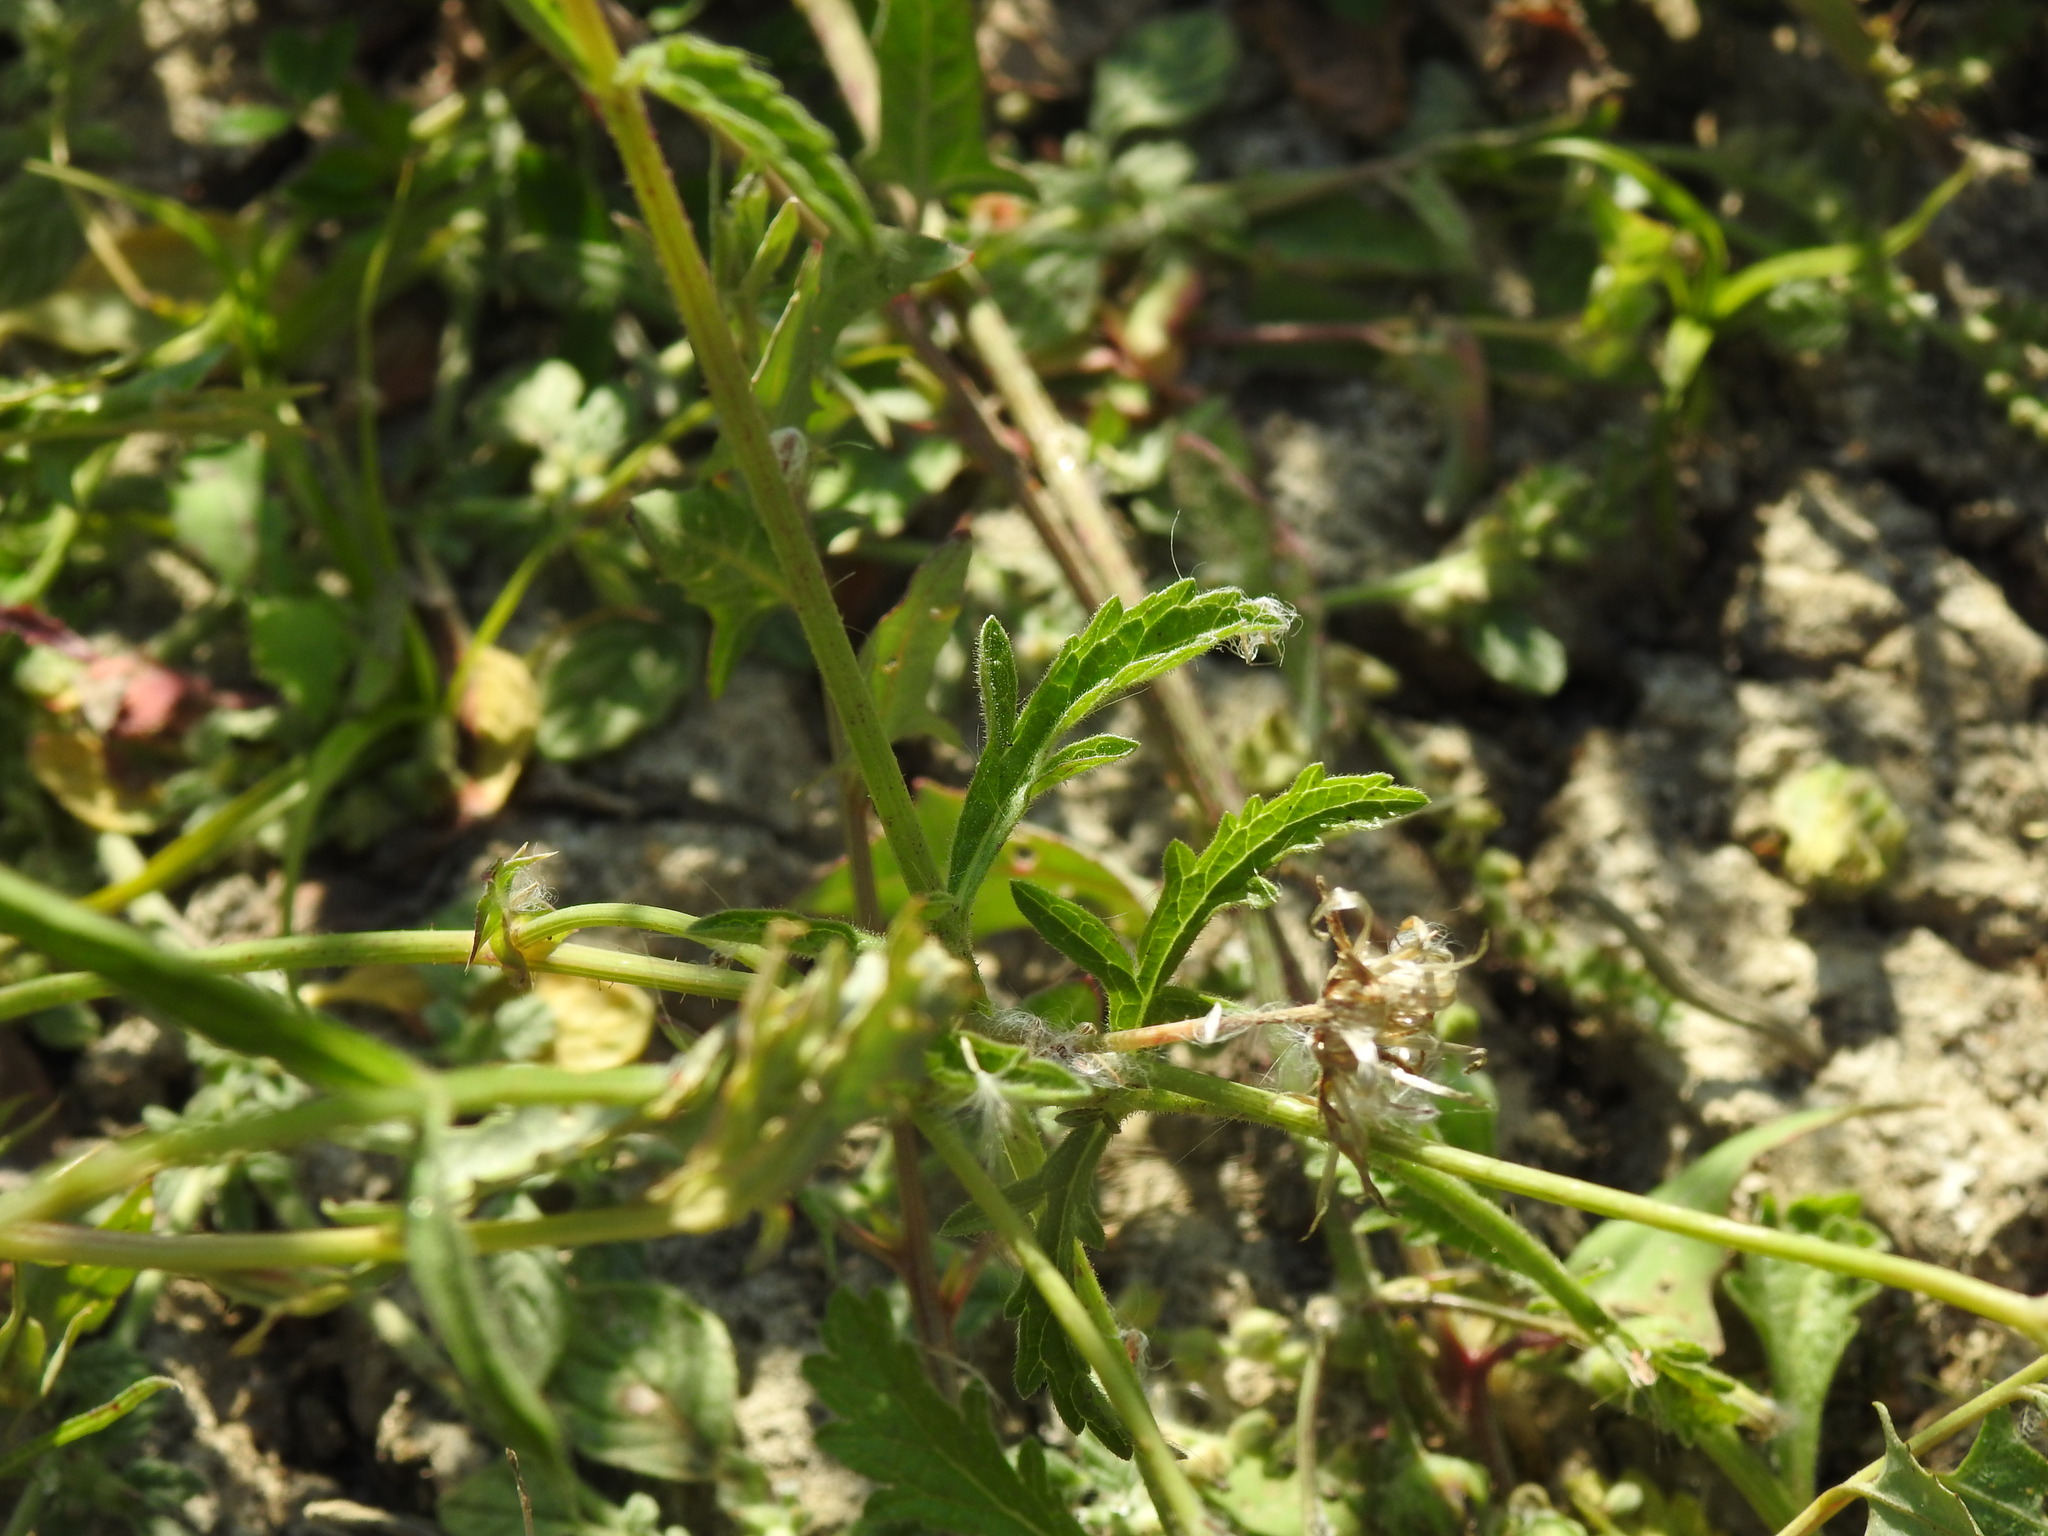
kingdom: Plantae
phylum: Tracheophyta
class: Magnoliopsida
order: Lamiales
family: Verbenaceae
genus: Verbena
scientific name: Verbena officinalis
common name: Vervain
